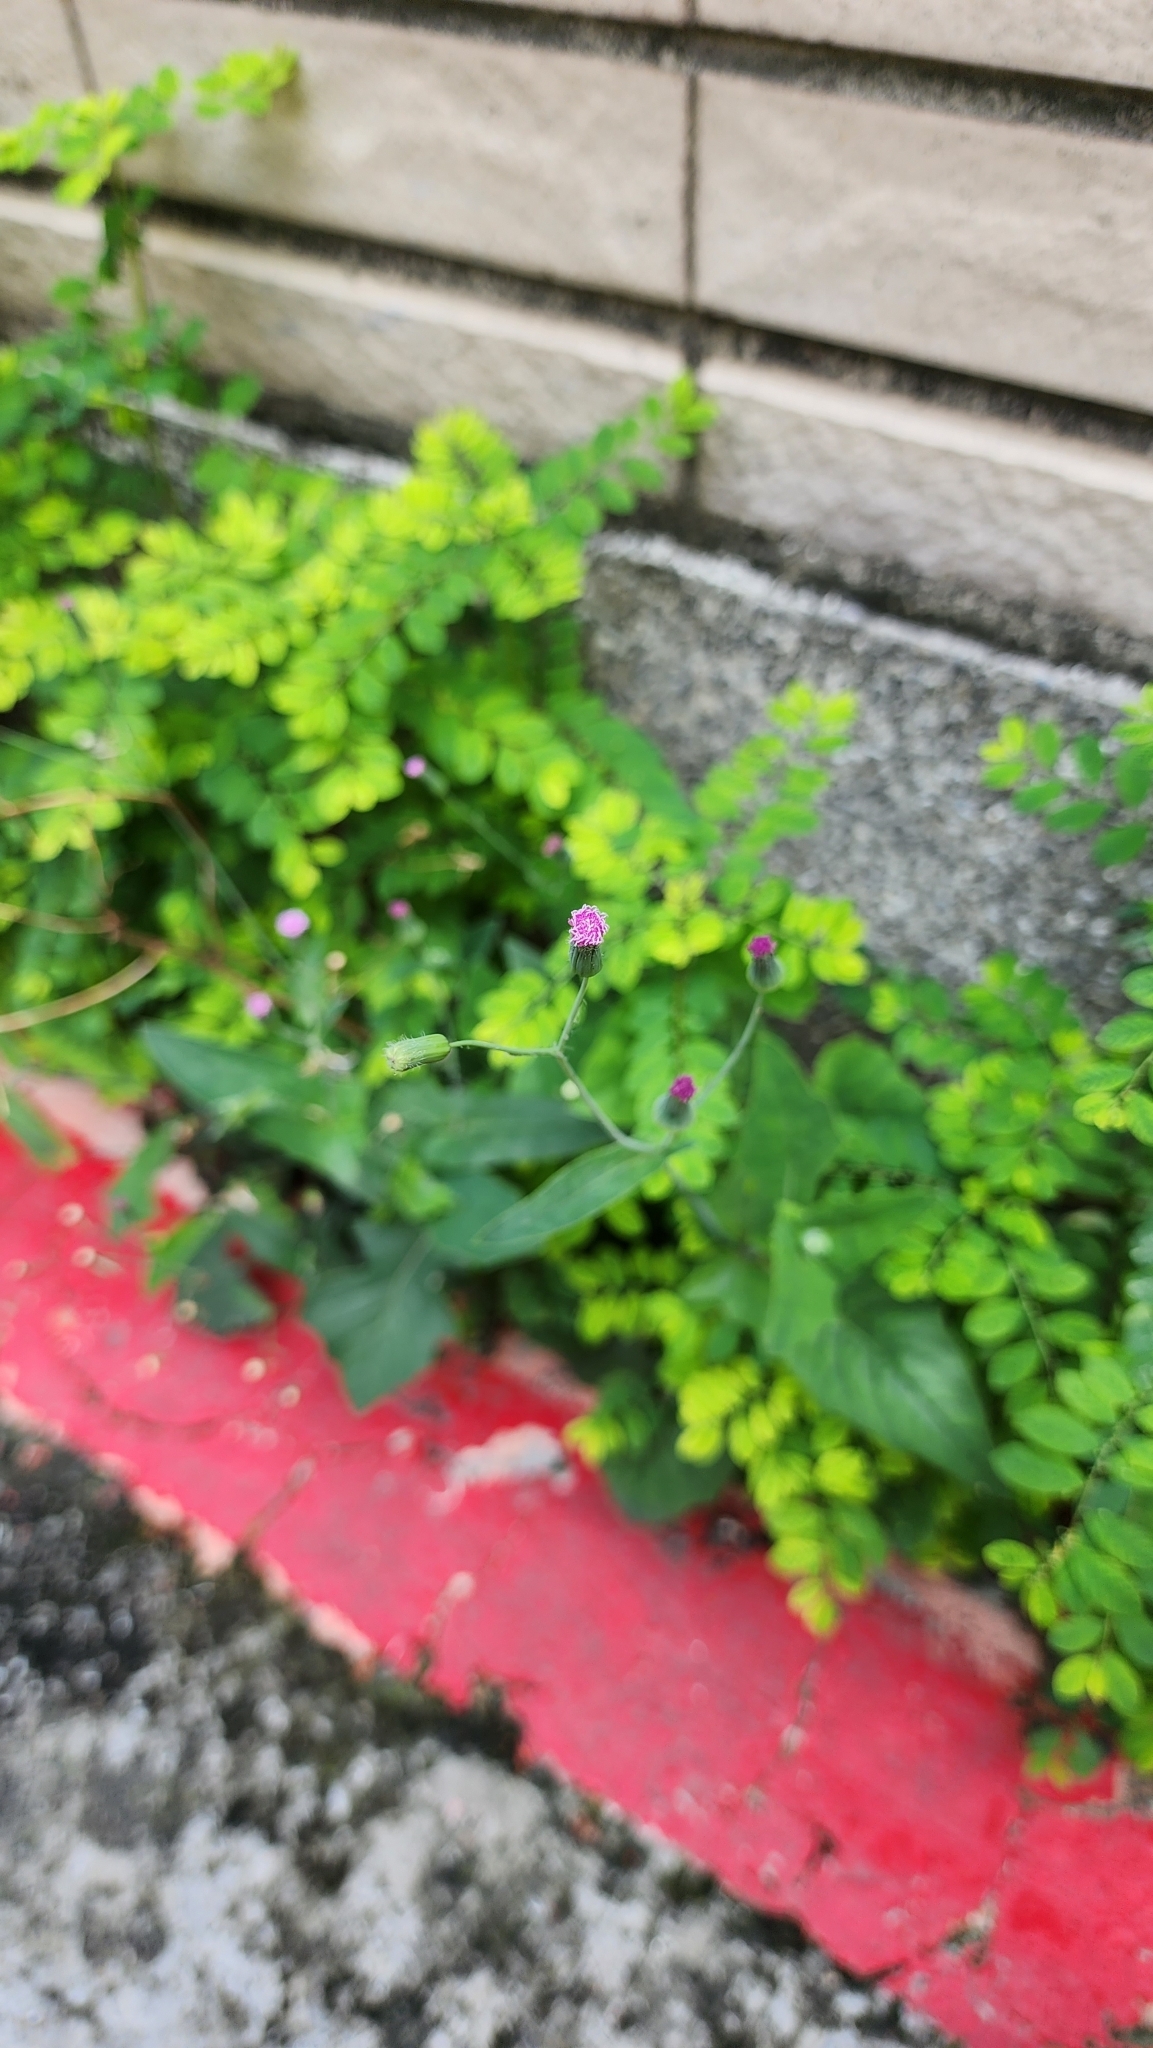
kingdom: Plantae
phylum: Tracheophyta
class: Magnoliopsida
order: Asterales
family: Asteraceae
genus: Emilia
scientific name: Emilia javanica
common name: Tassel-flower
